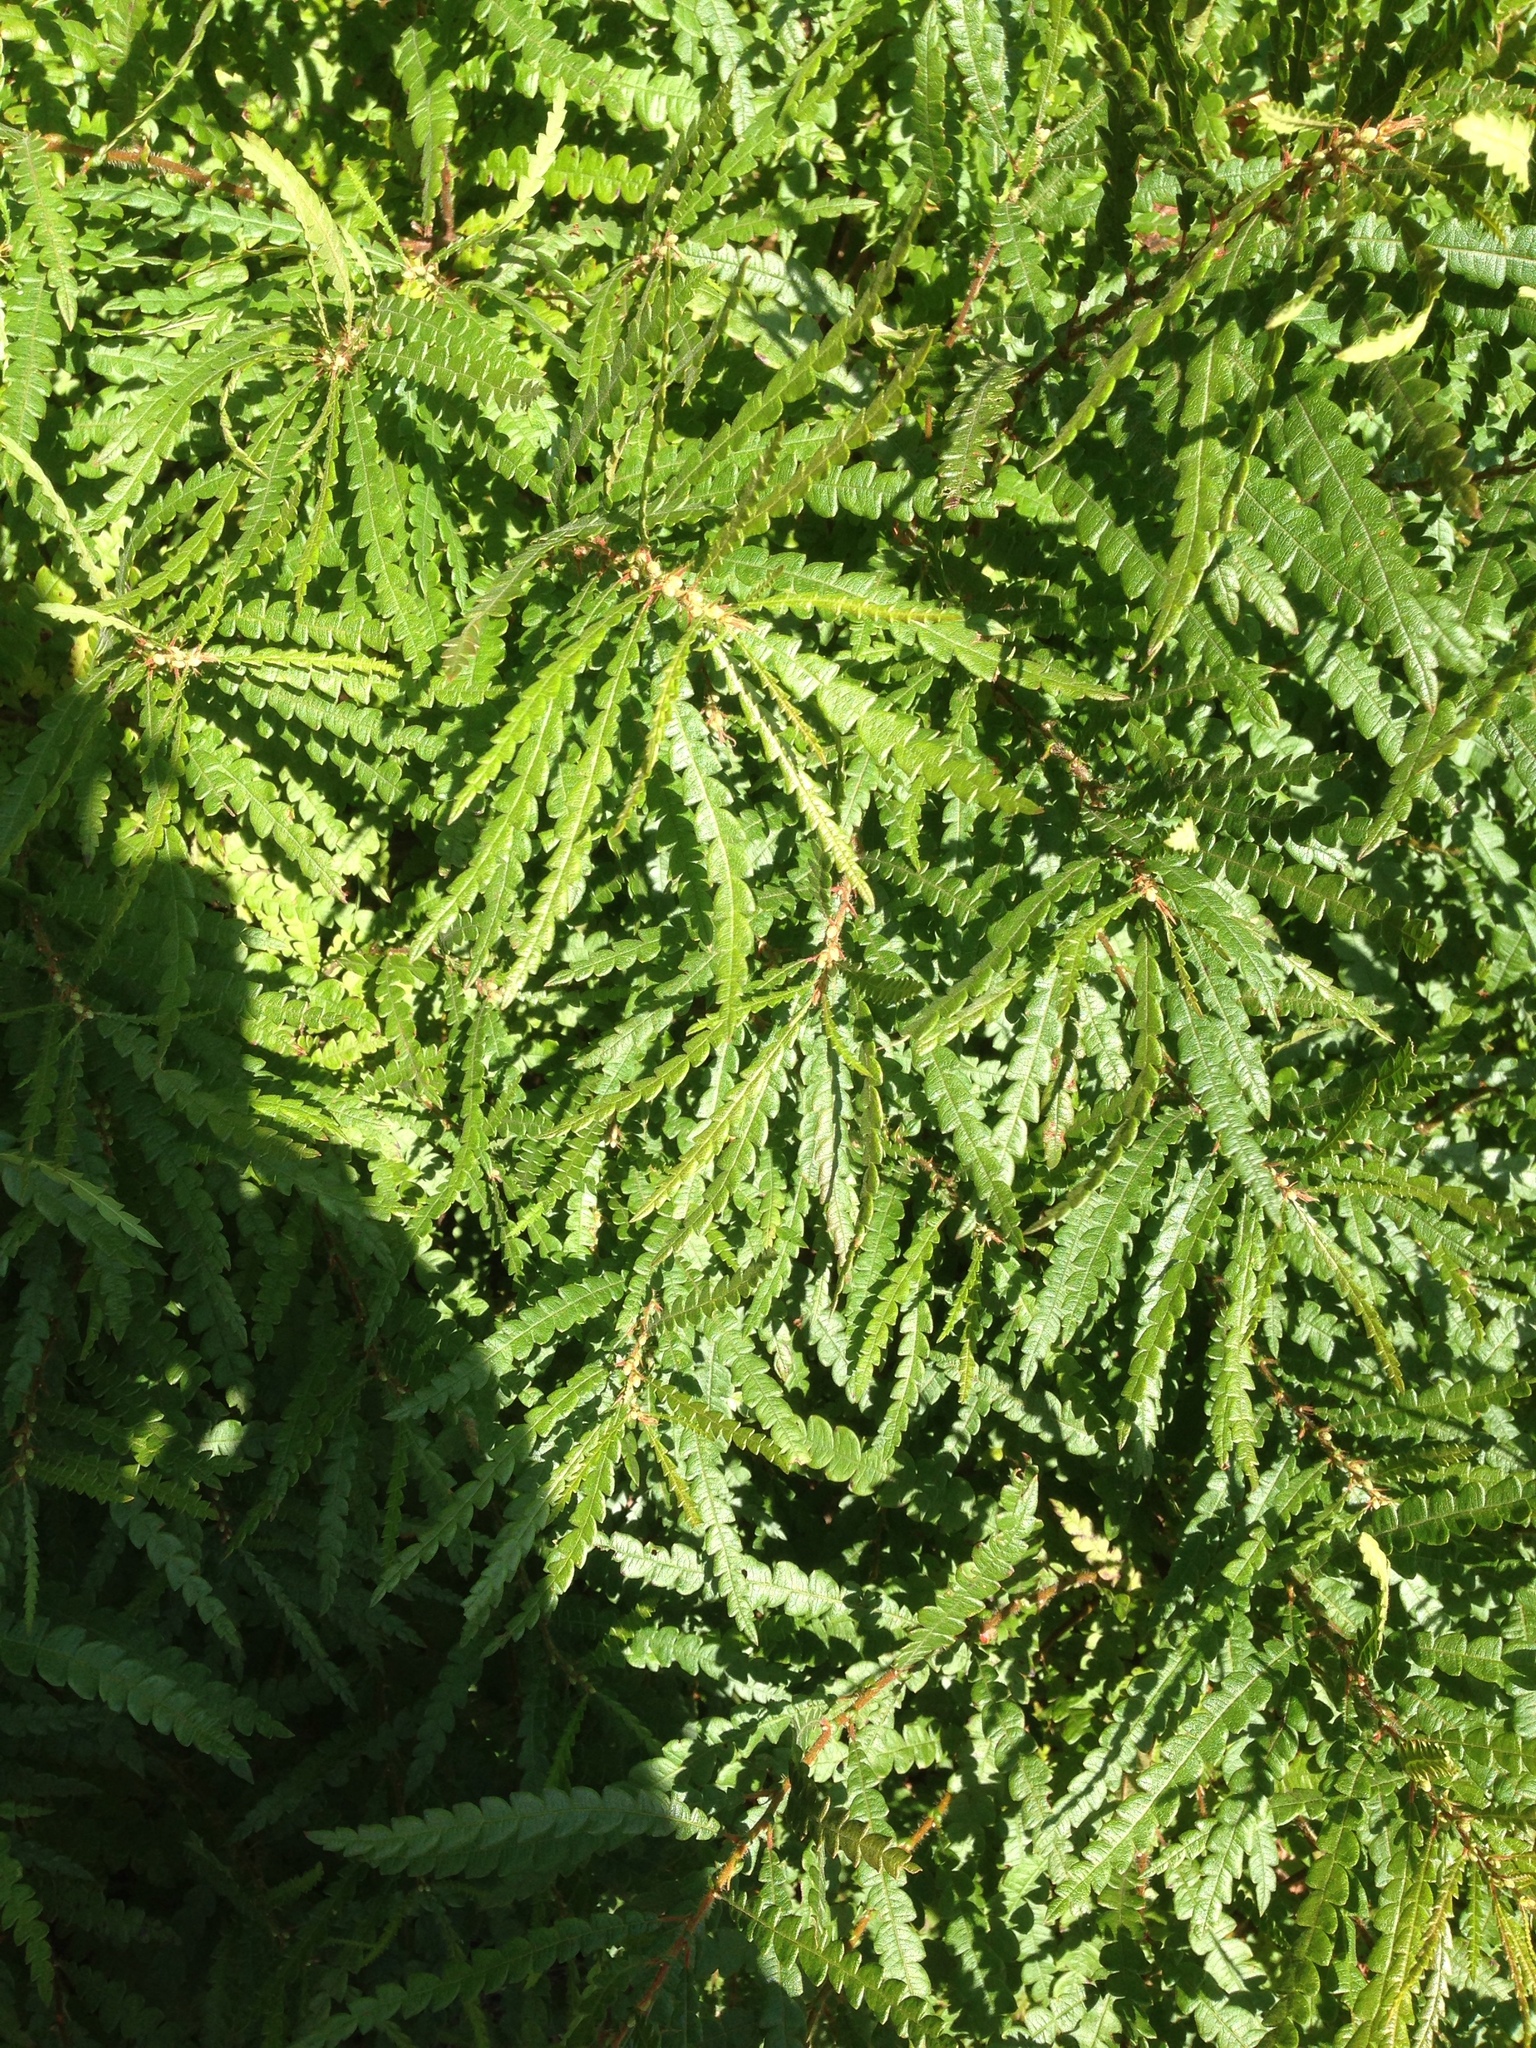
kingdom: Plantae
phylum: Tracheophyta
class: Magnoliopsida
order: Fagales
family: Myricaceae
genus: Comptonia
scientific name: Comptonia peregrina
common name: Sweet-fern
